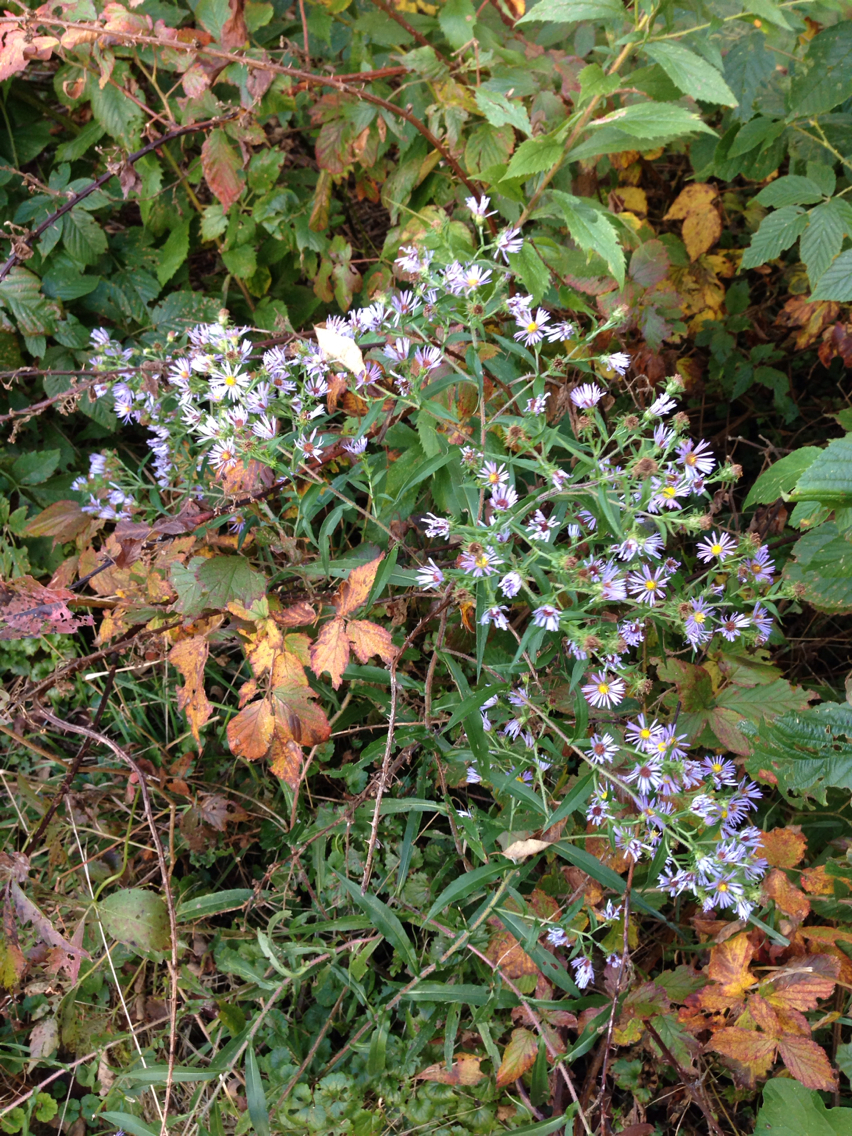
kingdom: Plantae
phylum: Tracheophyta
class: Magnoliopsida
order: Asterales
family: Asteraceae
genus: Symphyotrichum
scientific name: Symphyotrichum puniceum
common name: Bog aster
